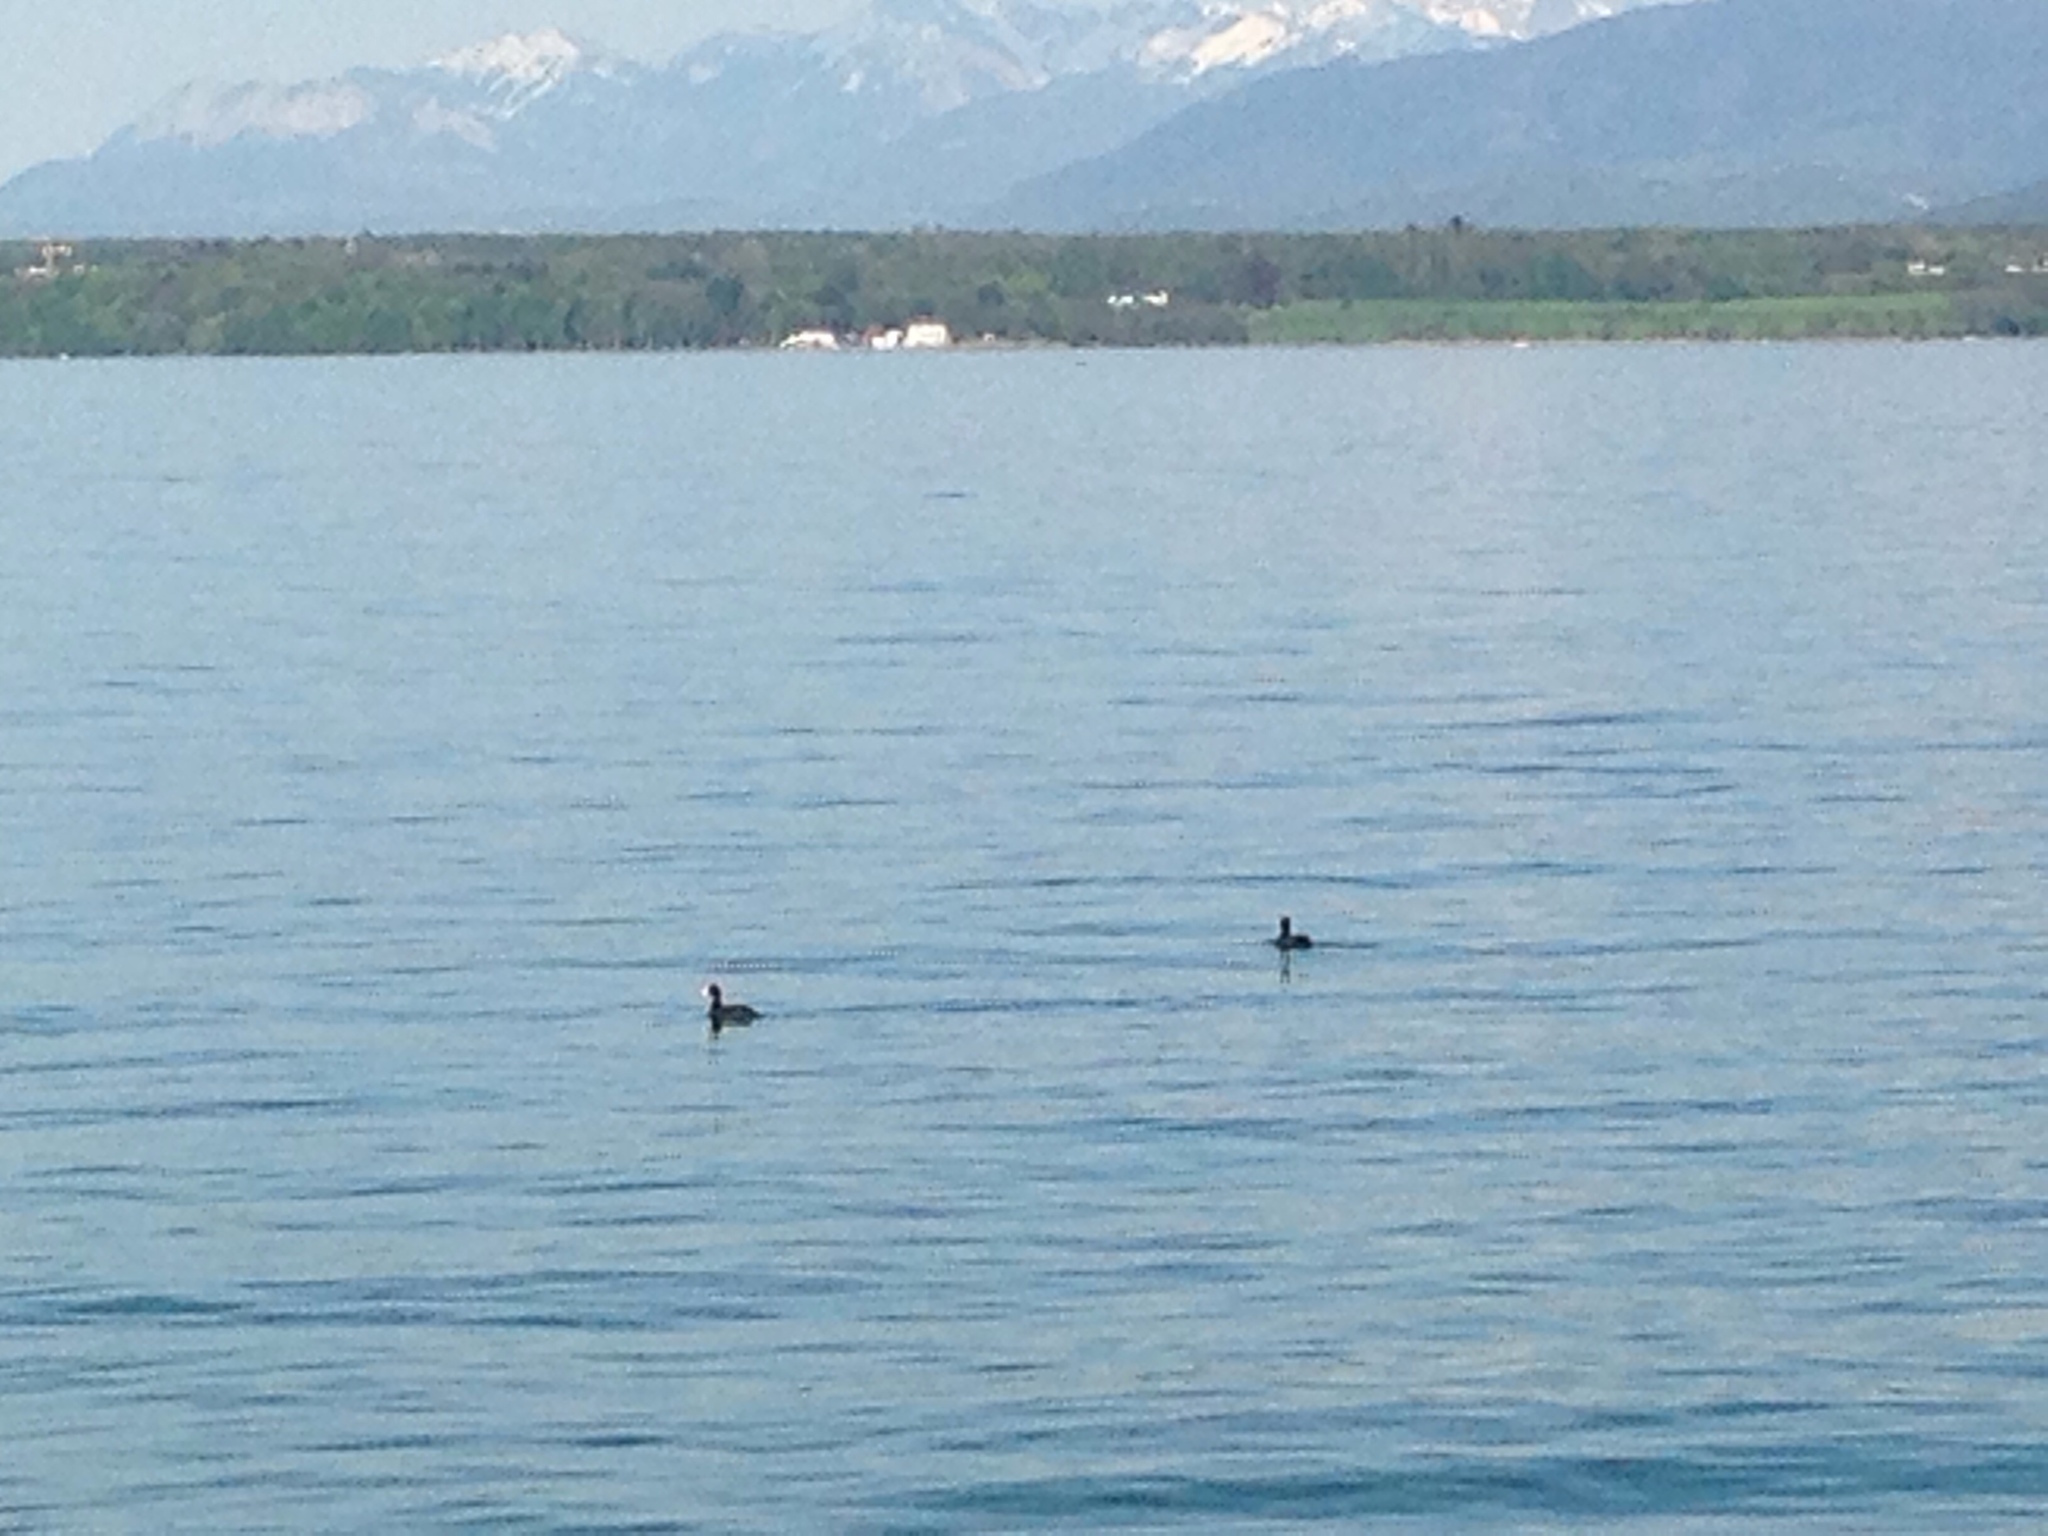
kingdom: Animalia
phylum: Chordata
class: Aves
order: Gruiformes
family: Rallidae
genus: Fulica
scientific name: Fulica atra
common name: Eurasian coot
